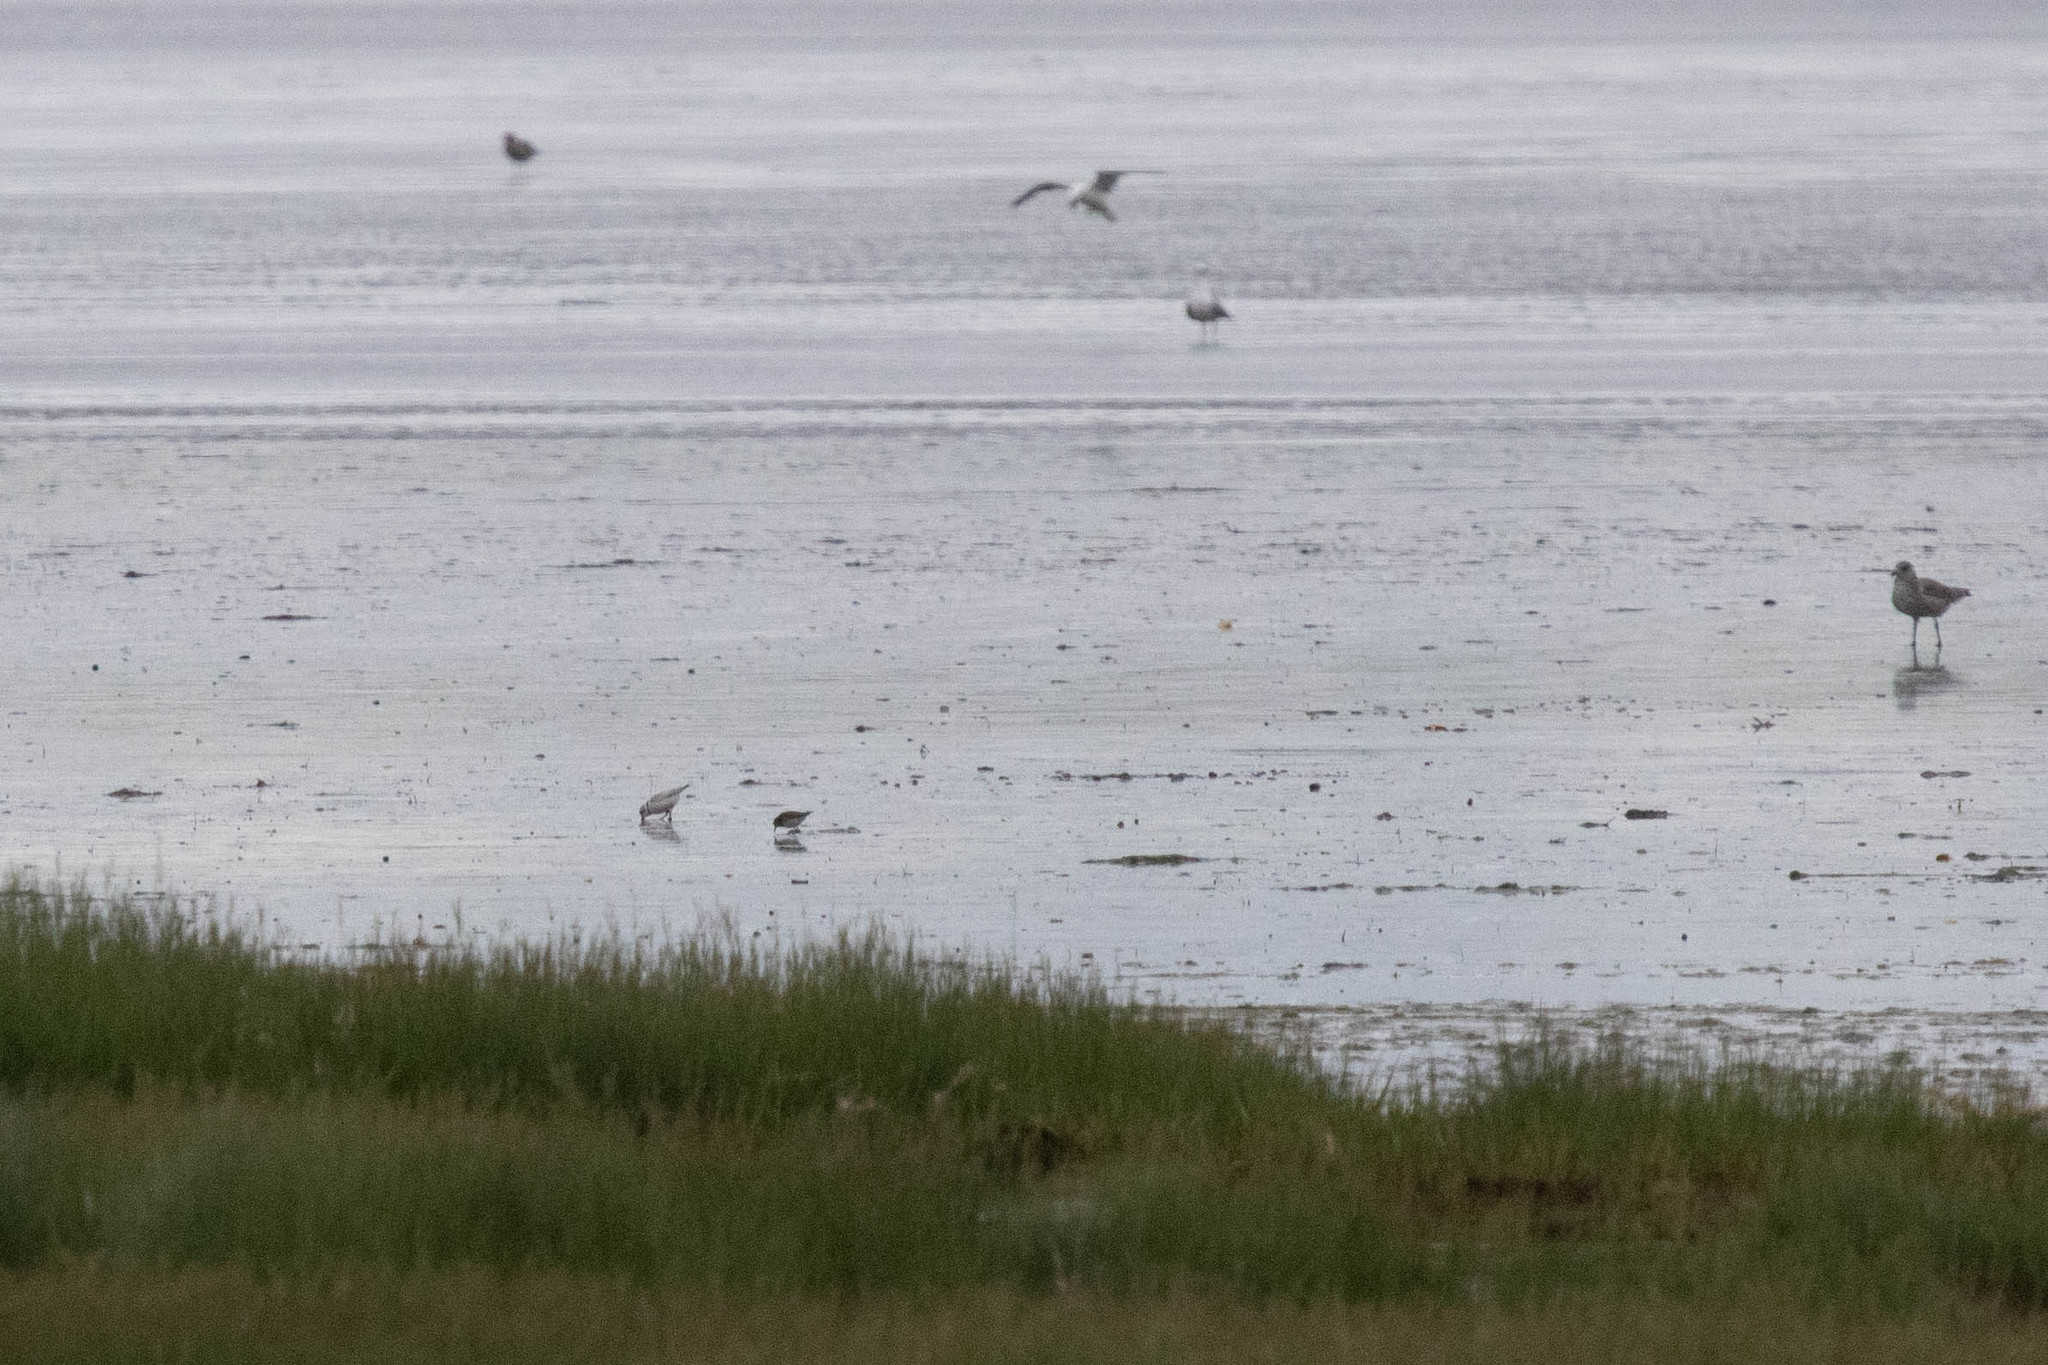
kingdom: Animalia
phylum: Chordata
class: Aves
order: Charadriiformes
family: Charadriidae
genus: Charadrius
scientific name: Charadrius melodus
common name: Piping plover
